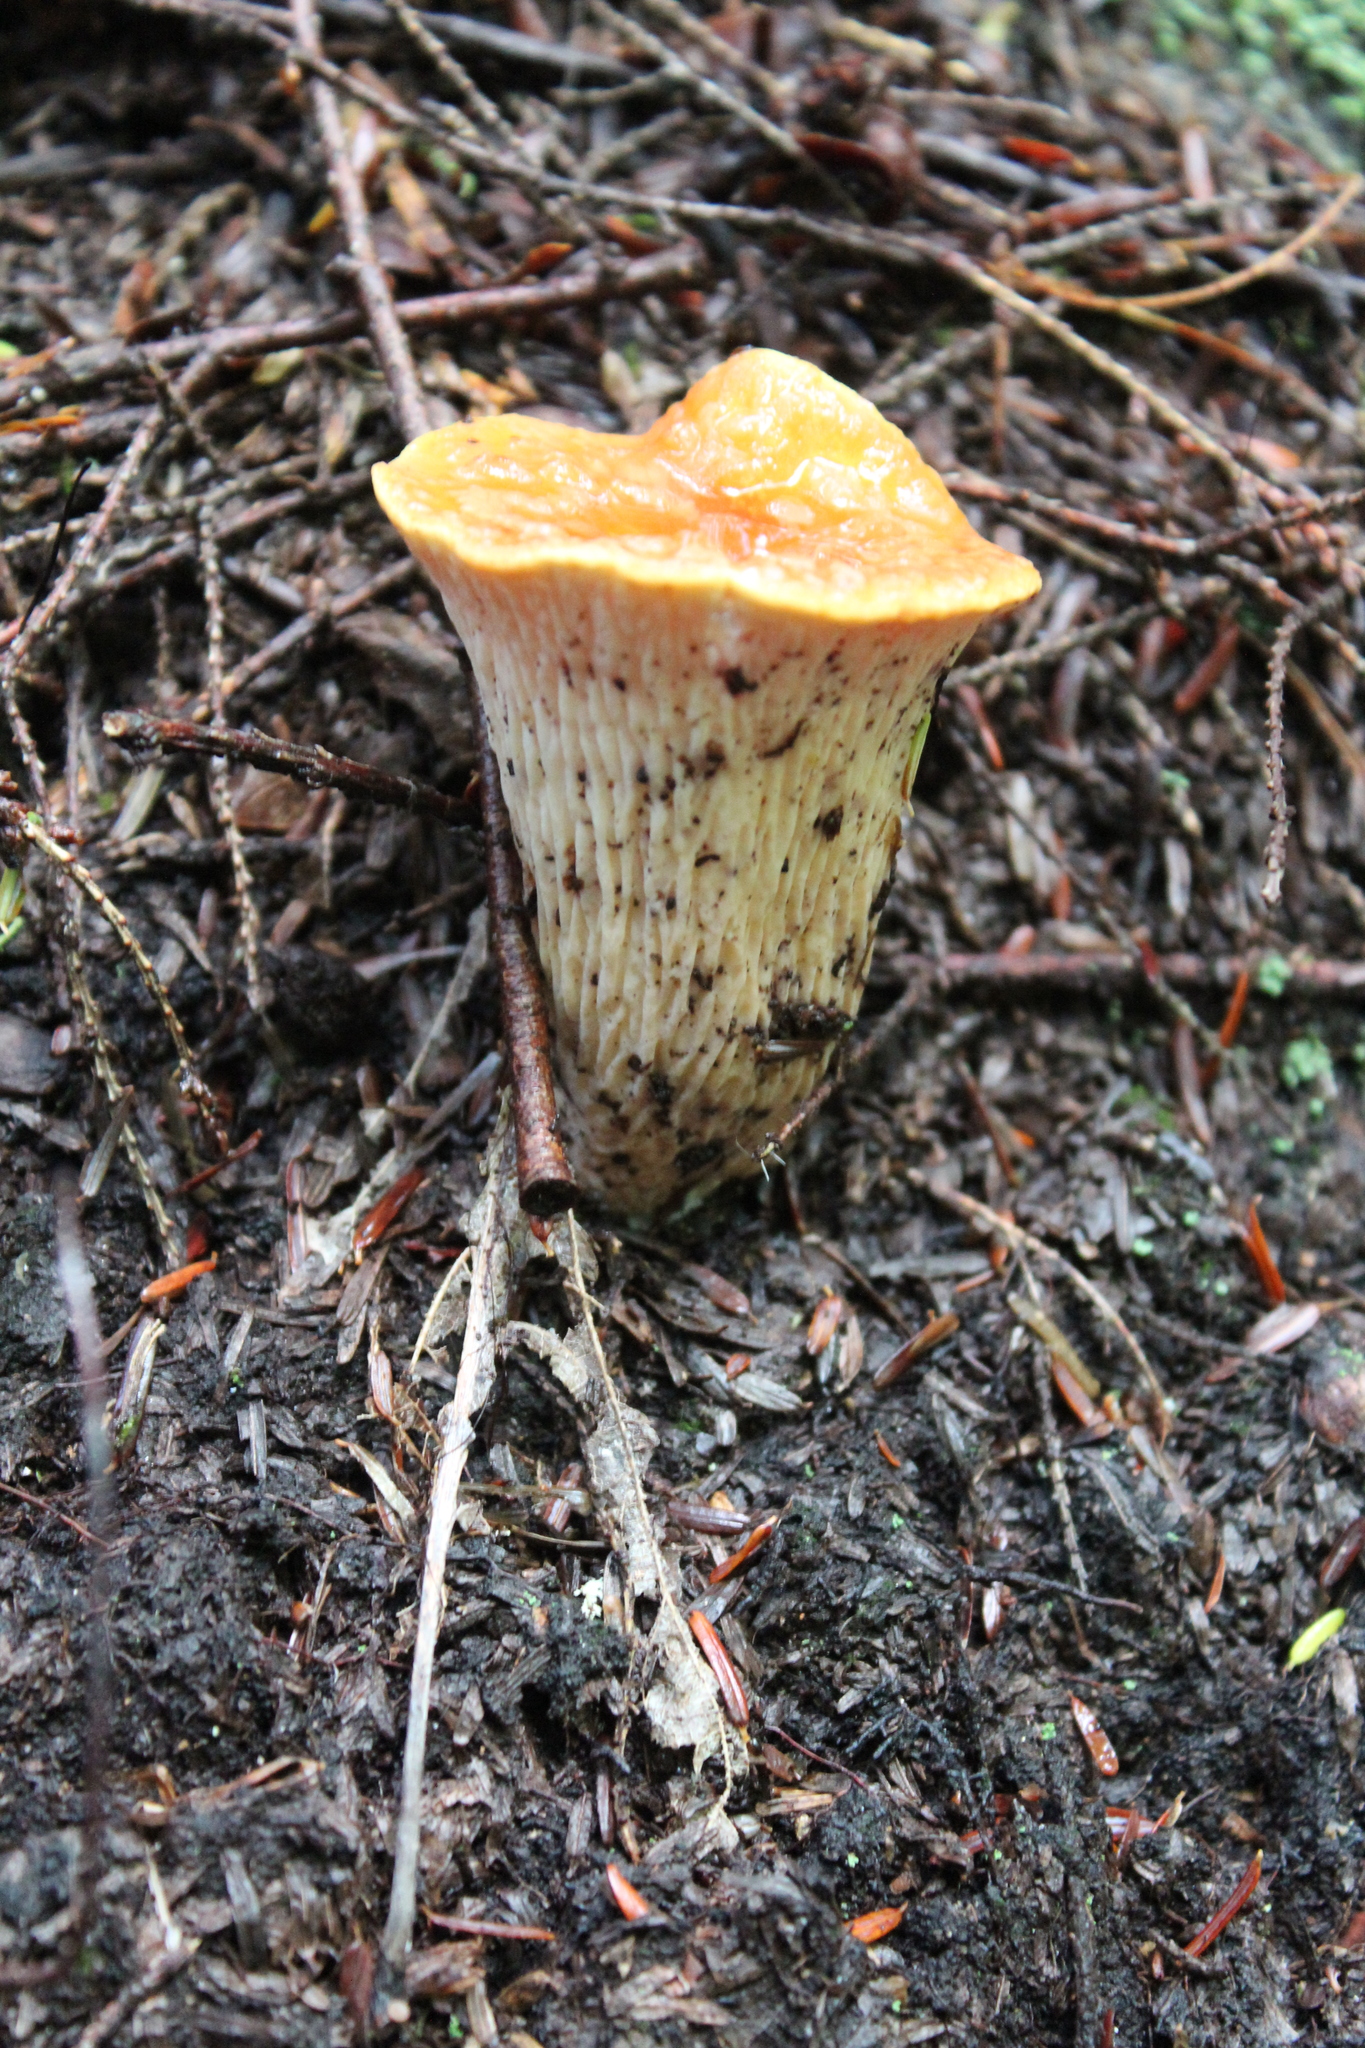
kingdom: Fungi
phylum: Basidiomycota
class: Agaricomycetes
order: Gomphales
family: Gomphaceae
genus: Turbinellus
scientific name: Turbinellus floccosus
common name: Scaly chanterelle
